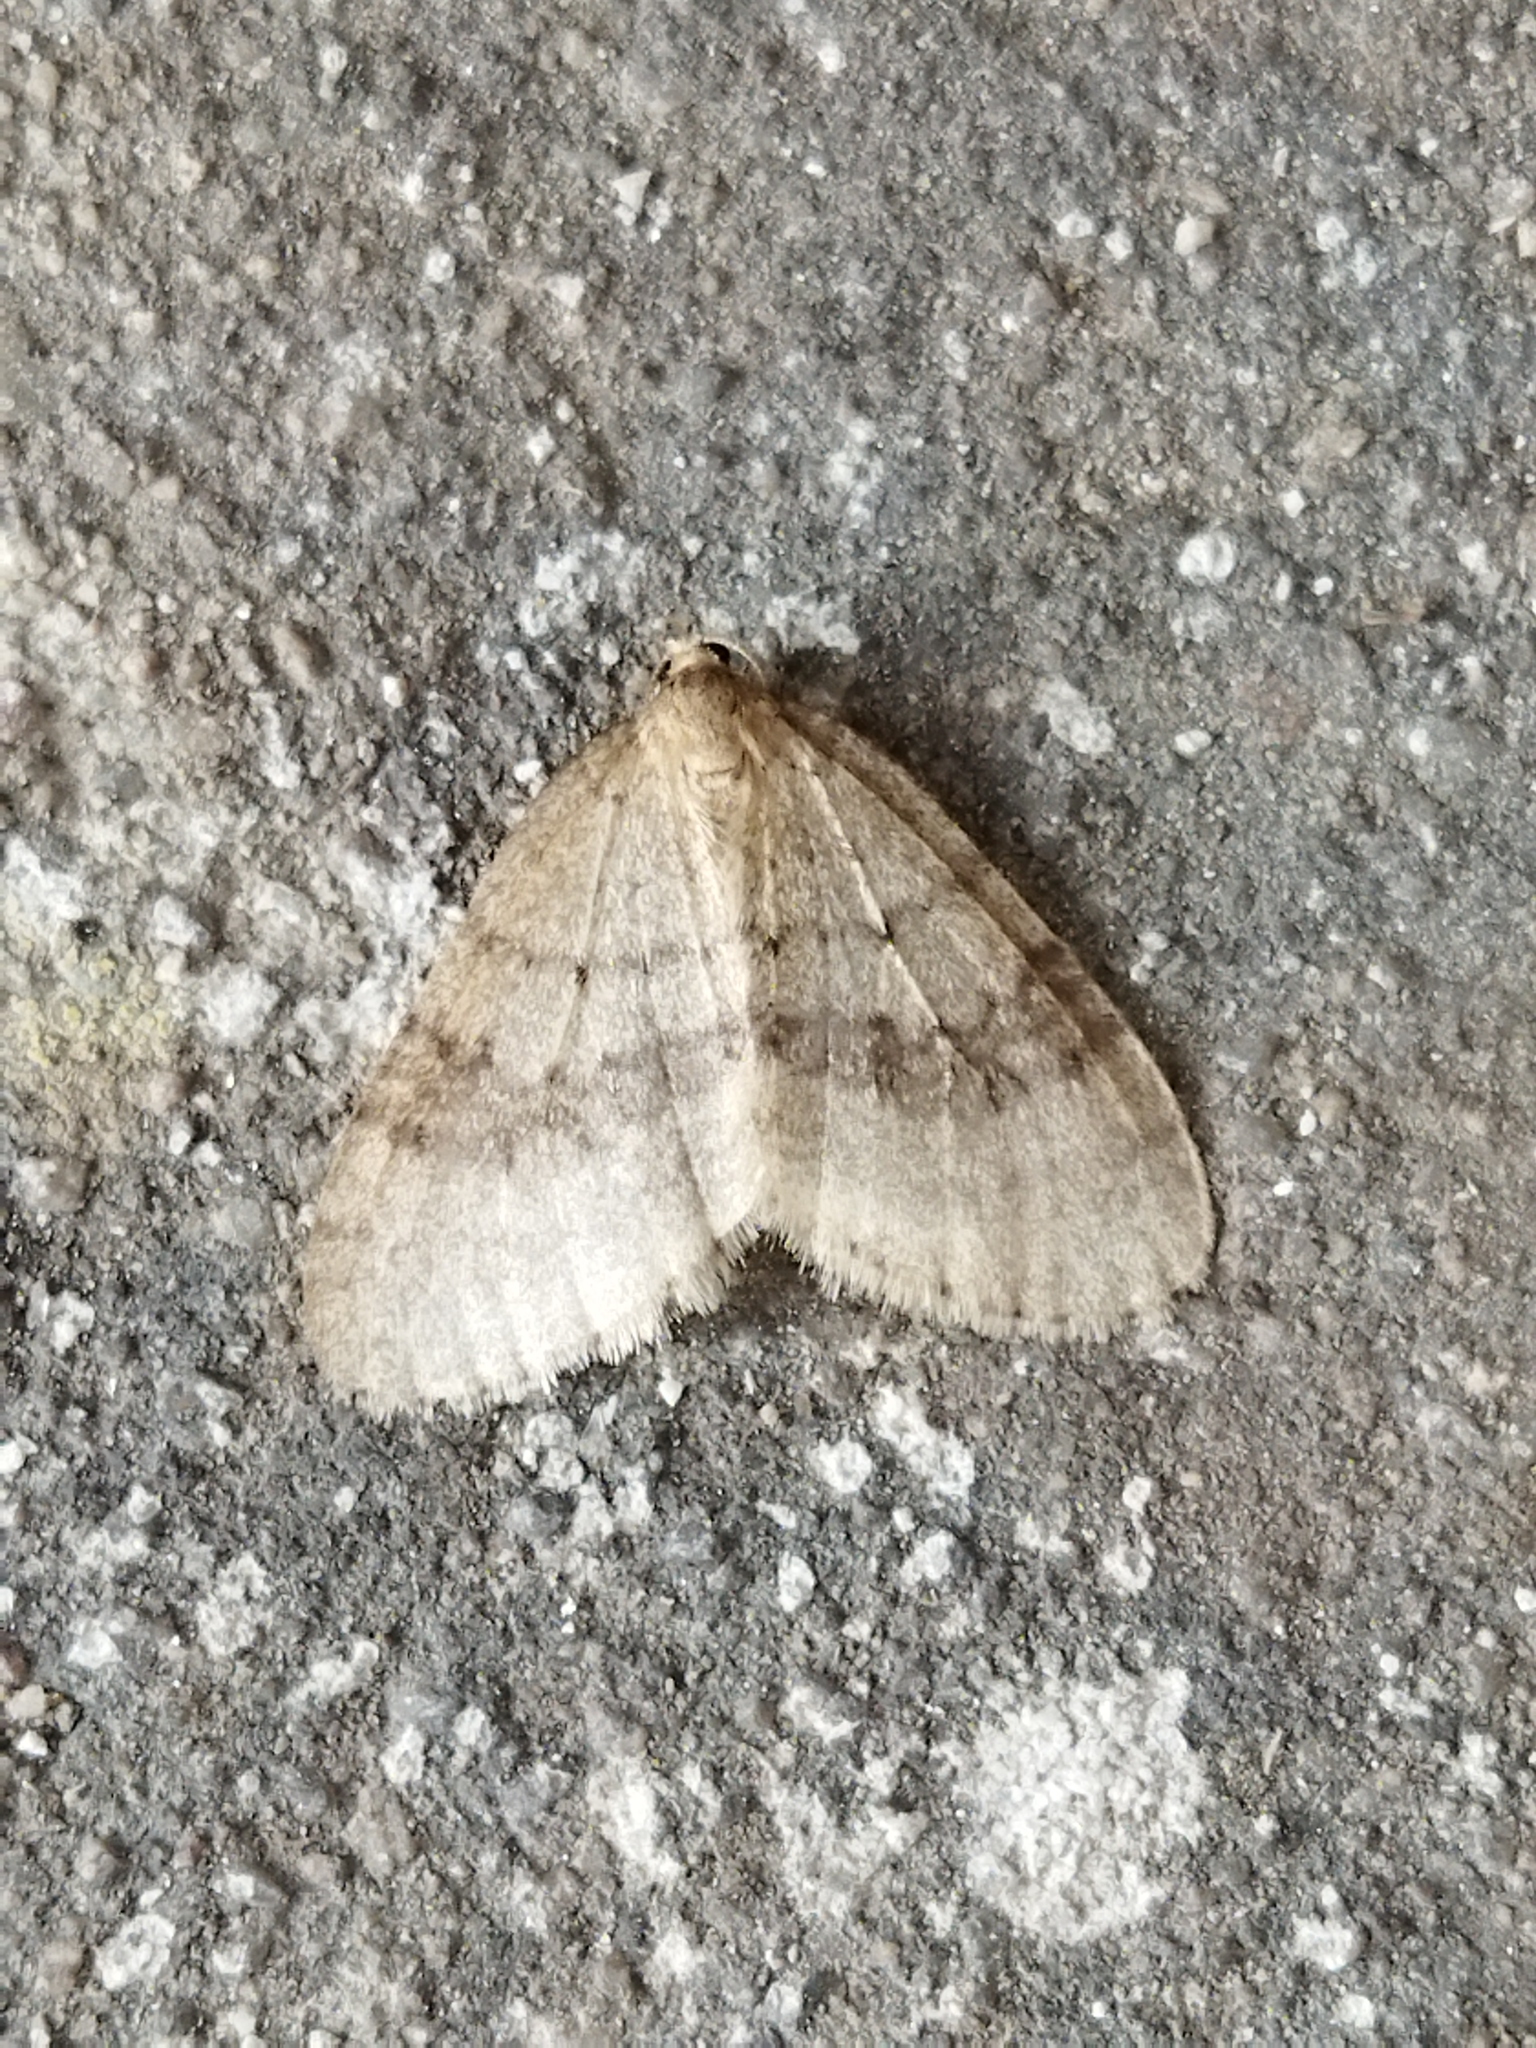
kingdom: Animalia
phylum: Arthropoda
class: Insecta
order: Lepidoptera
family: Geometridae
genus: Operophtera
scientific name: Operophtera brumata
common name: Winter moth
